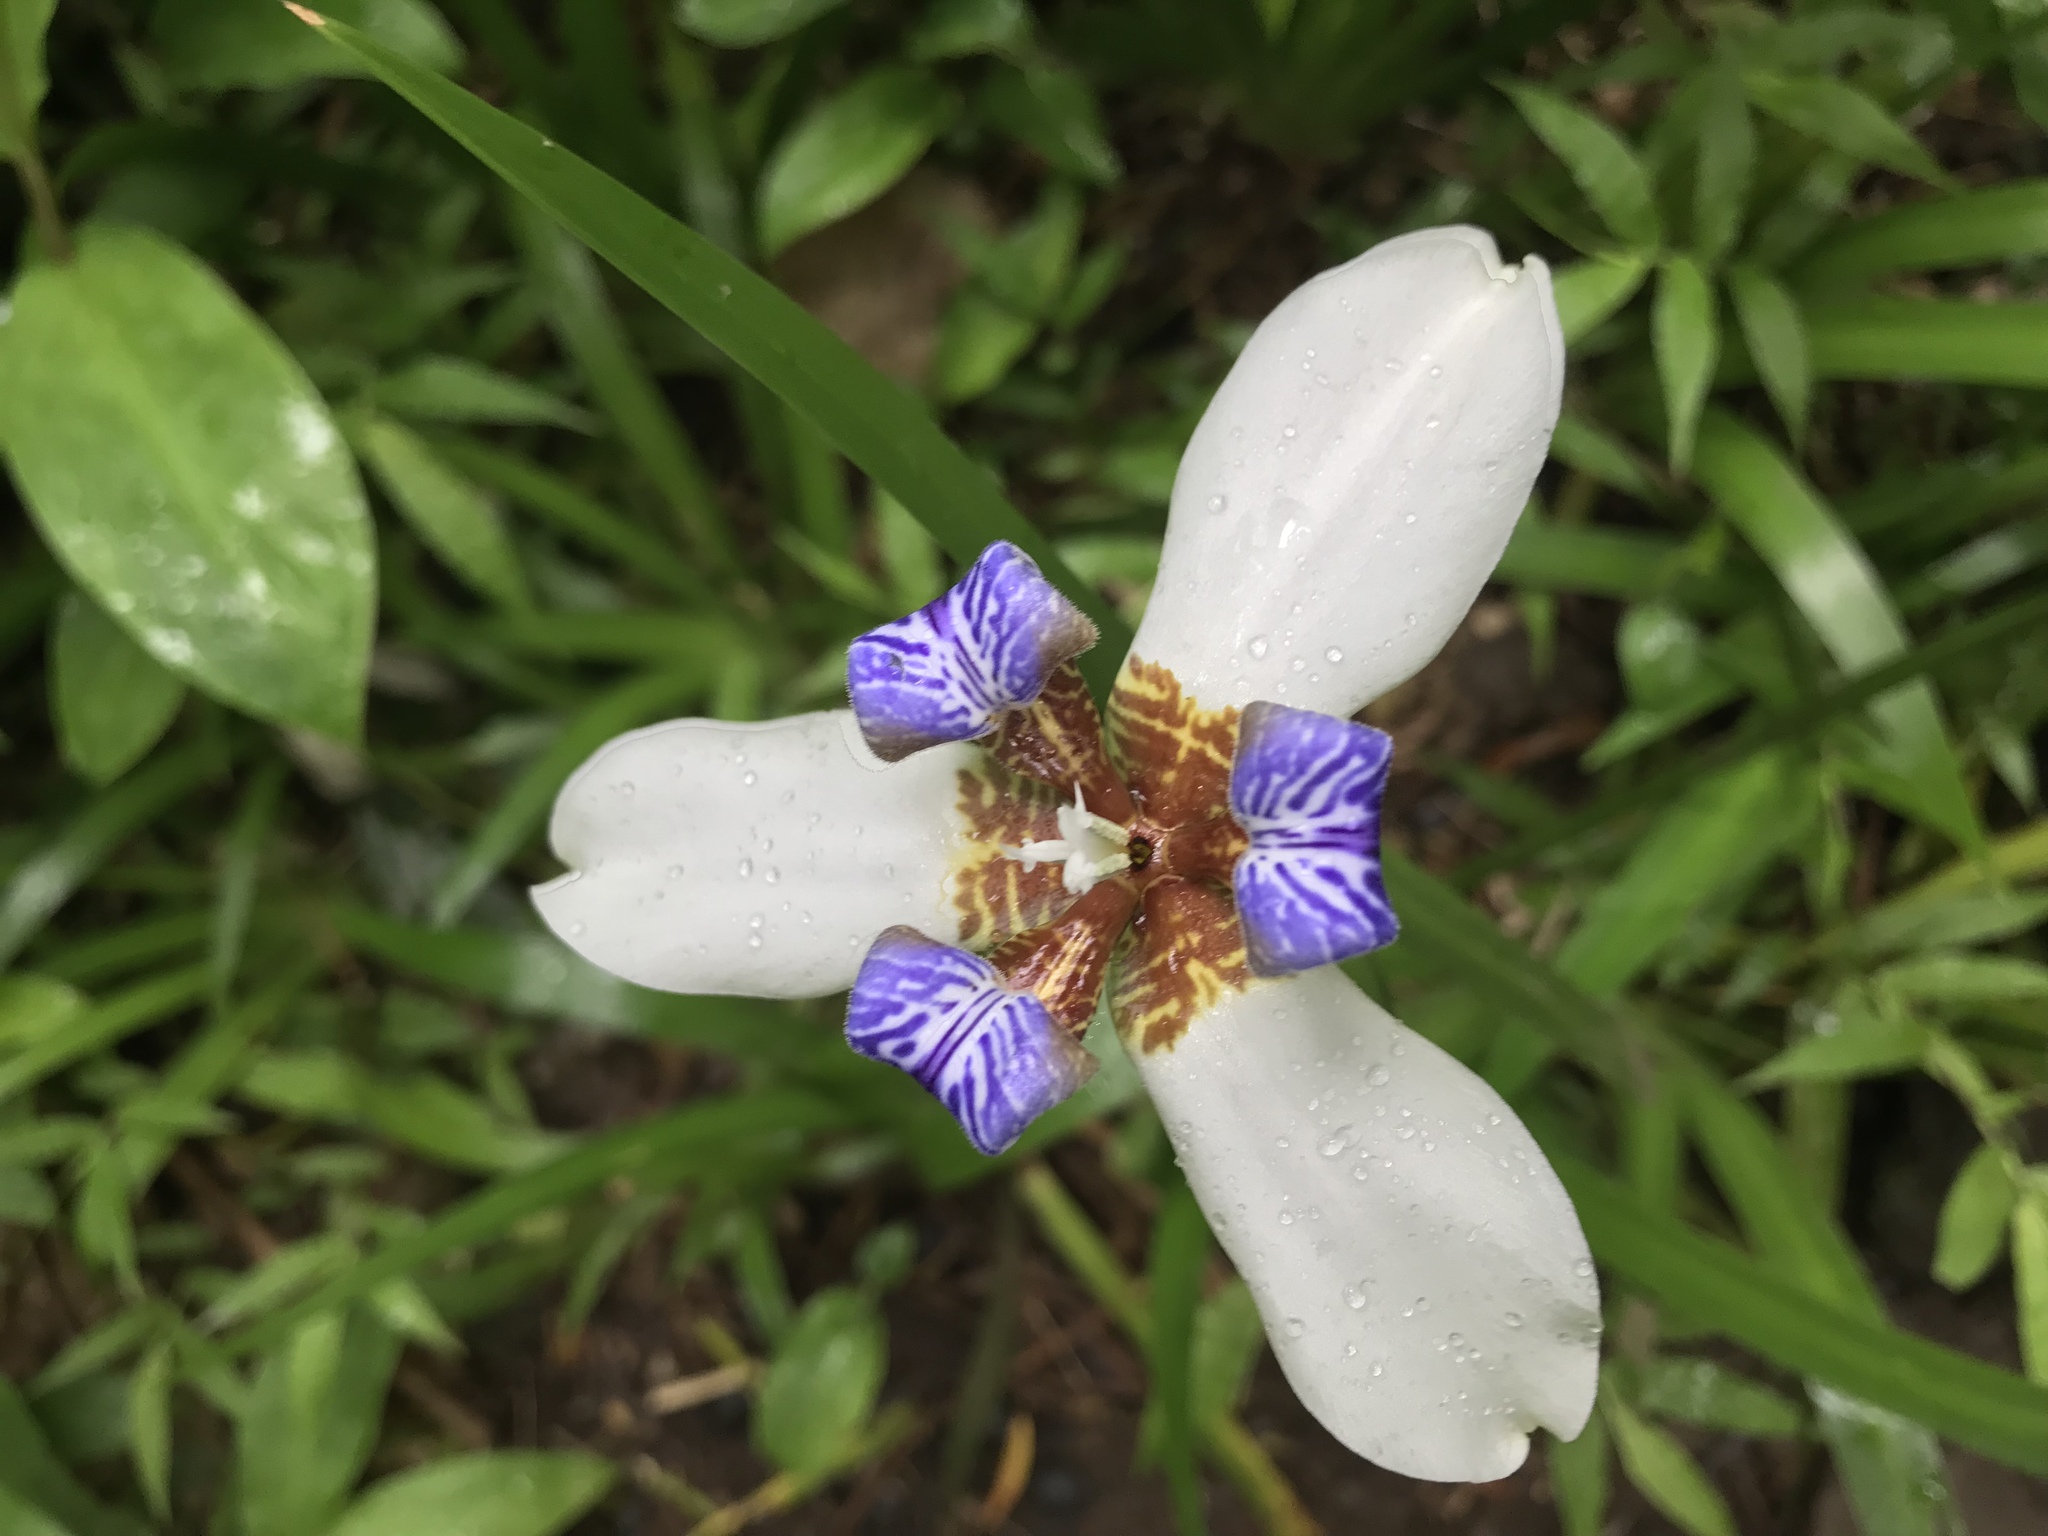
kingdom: Plantae
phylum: Tracheophyta
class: Liliopsida
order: Asparagales
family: Iridaceae
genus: Trimezia
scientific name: Trimezia northiana
